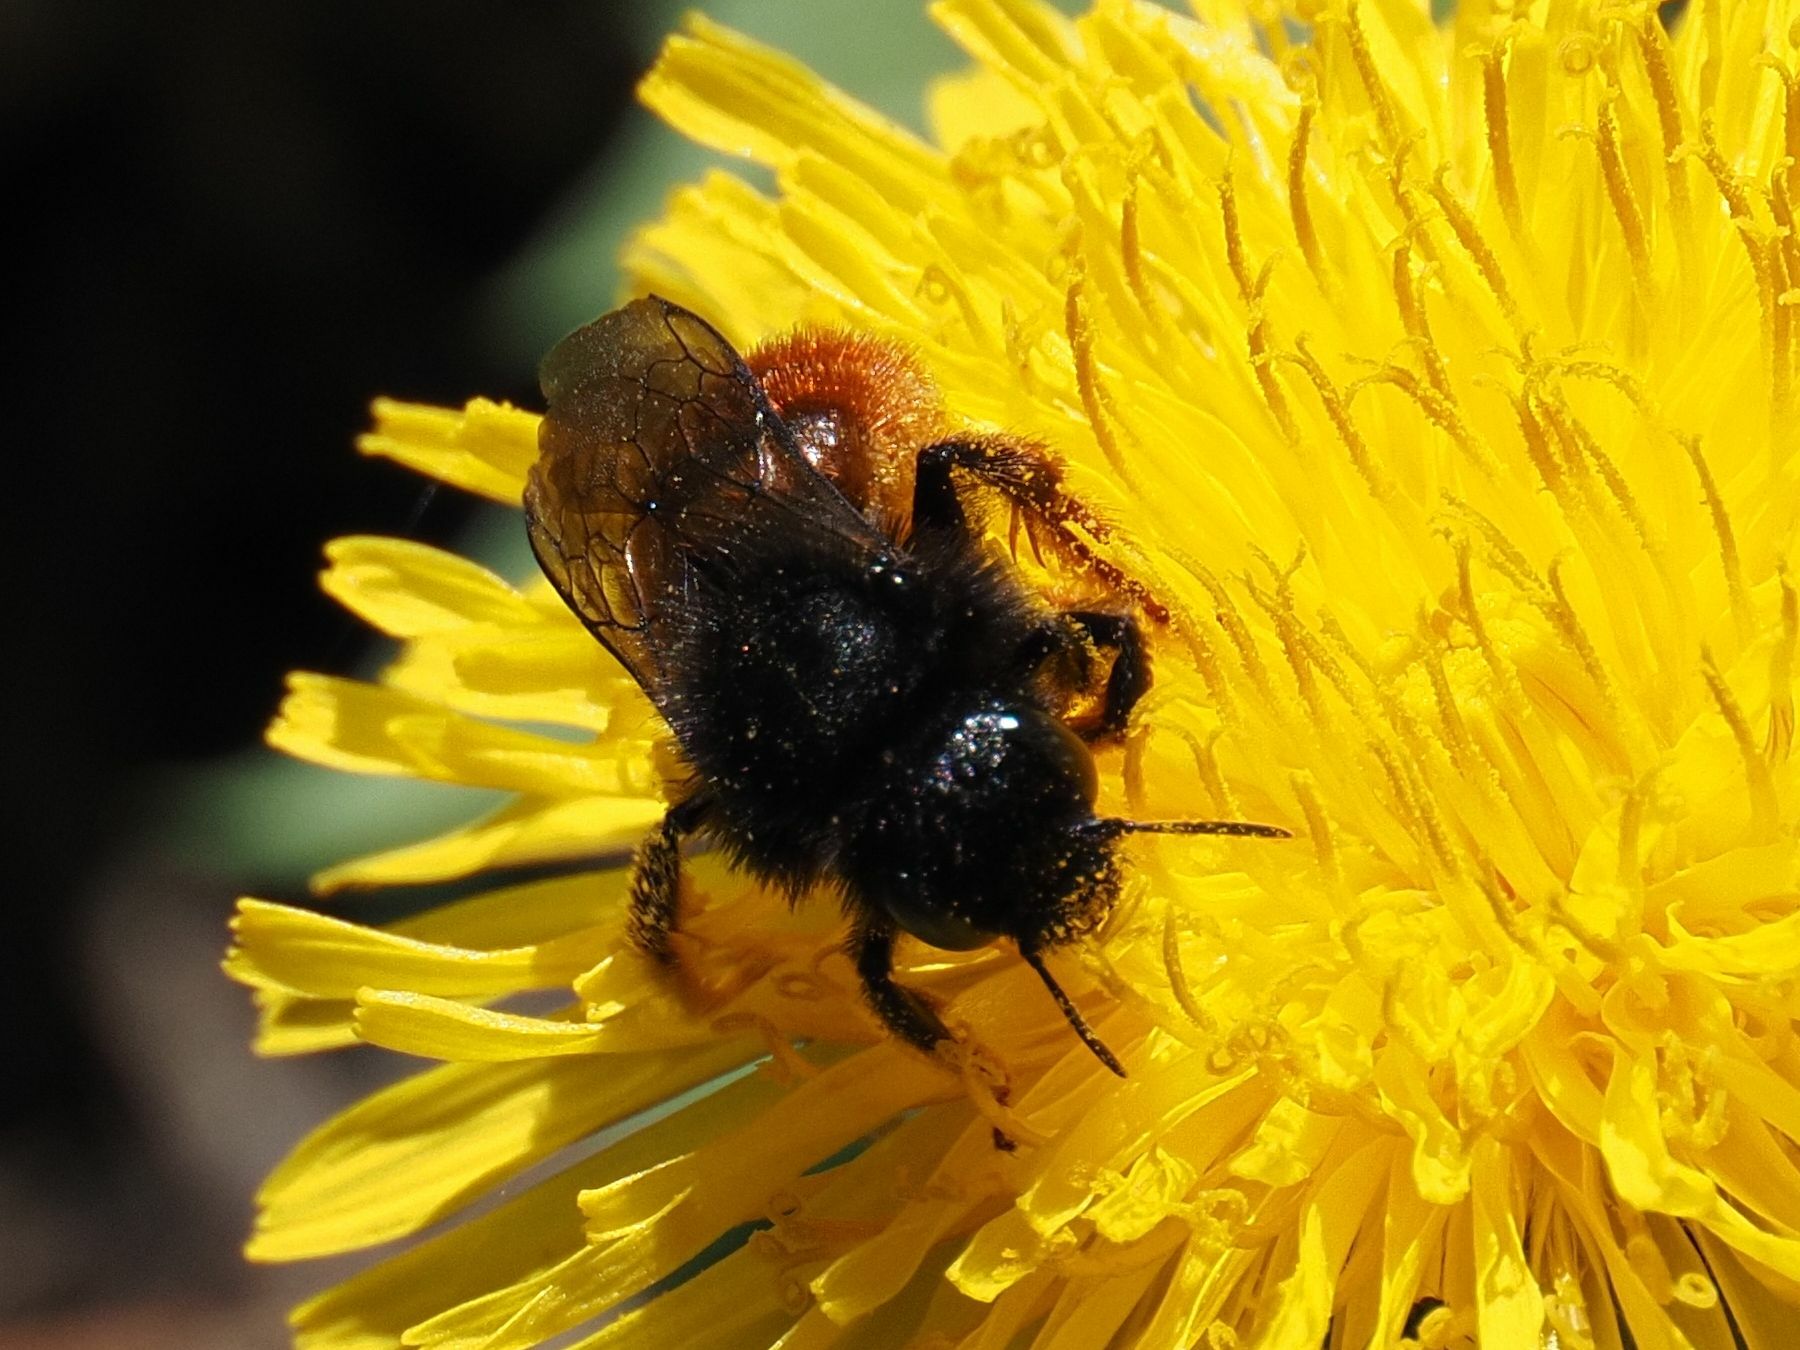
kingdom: Animalia
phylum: Arthropoda
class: Insecta
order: Hymenoptera
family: Megachilidae
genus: Osmia
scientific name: Osmia bicolor
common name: Red-tailed mason bee
